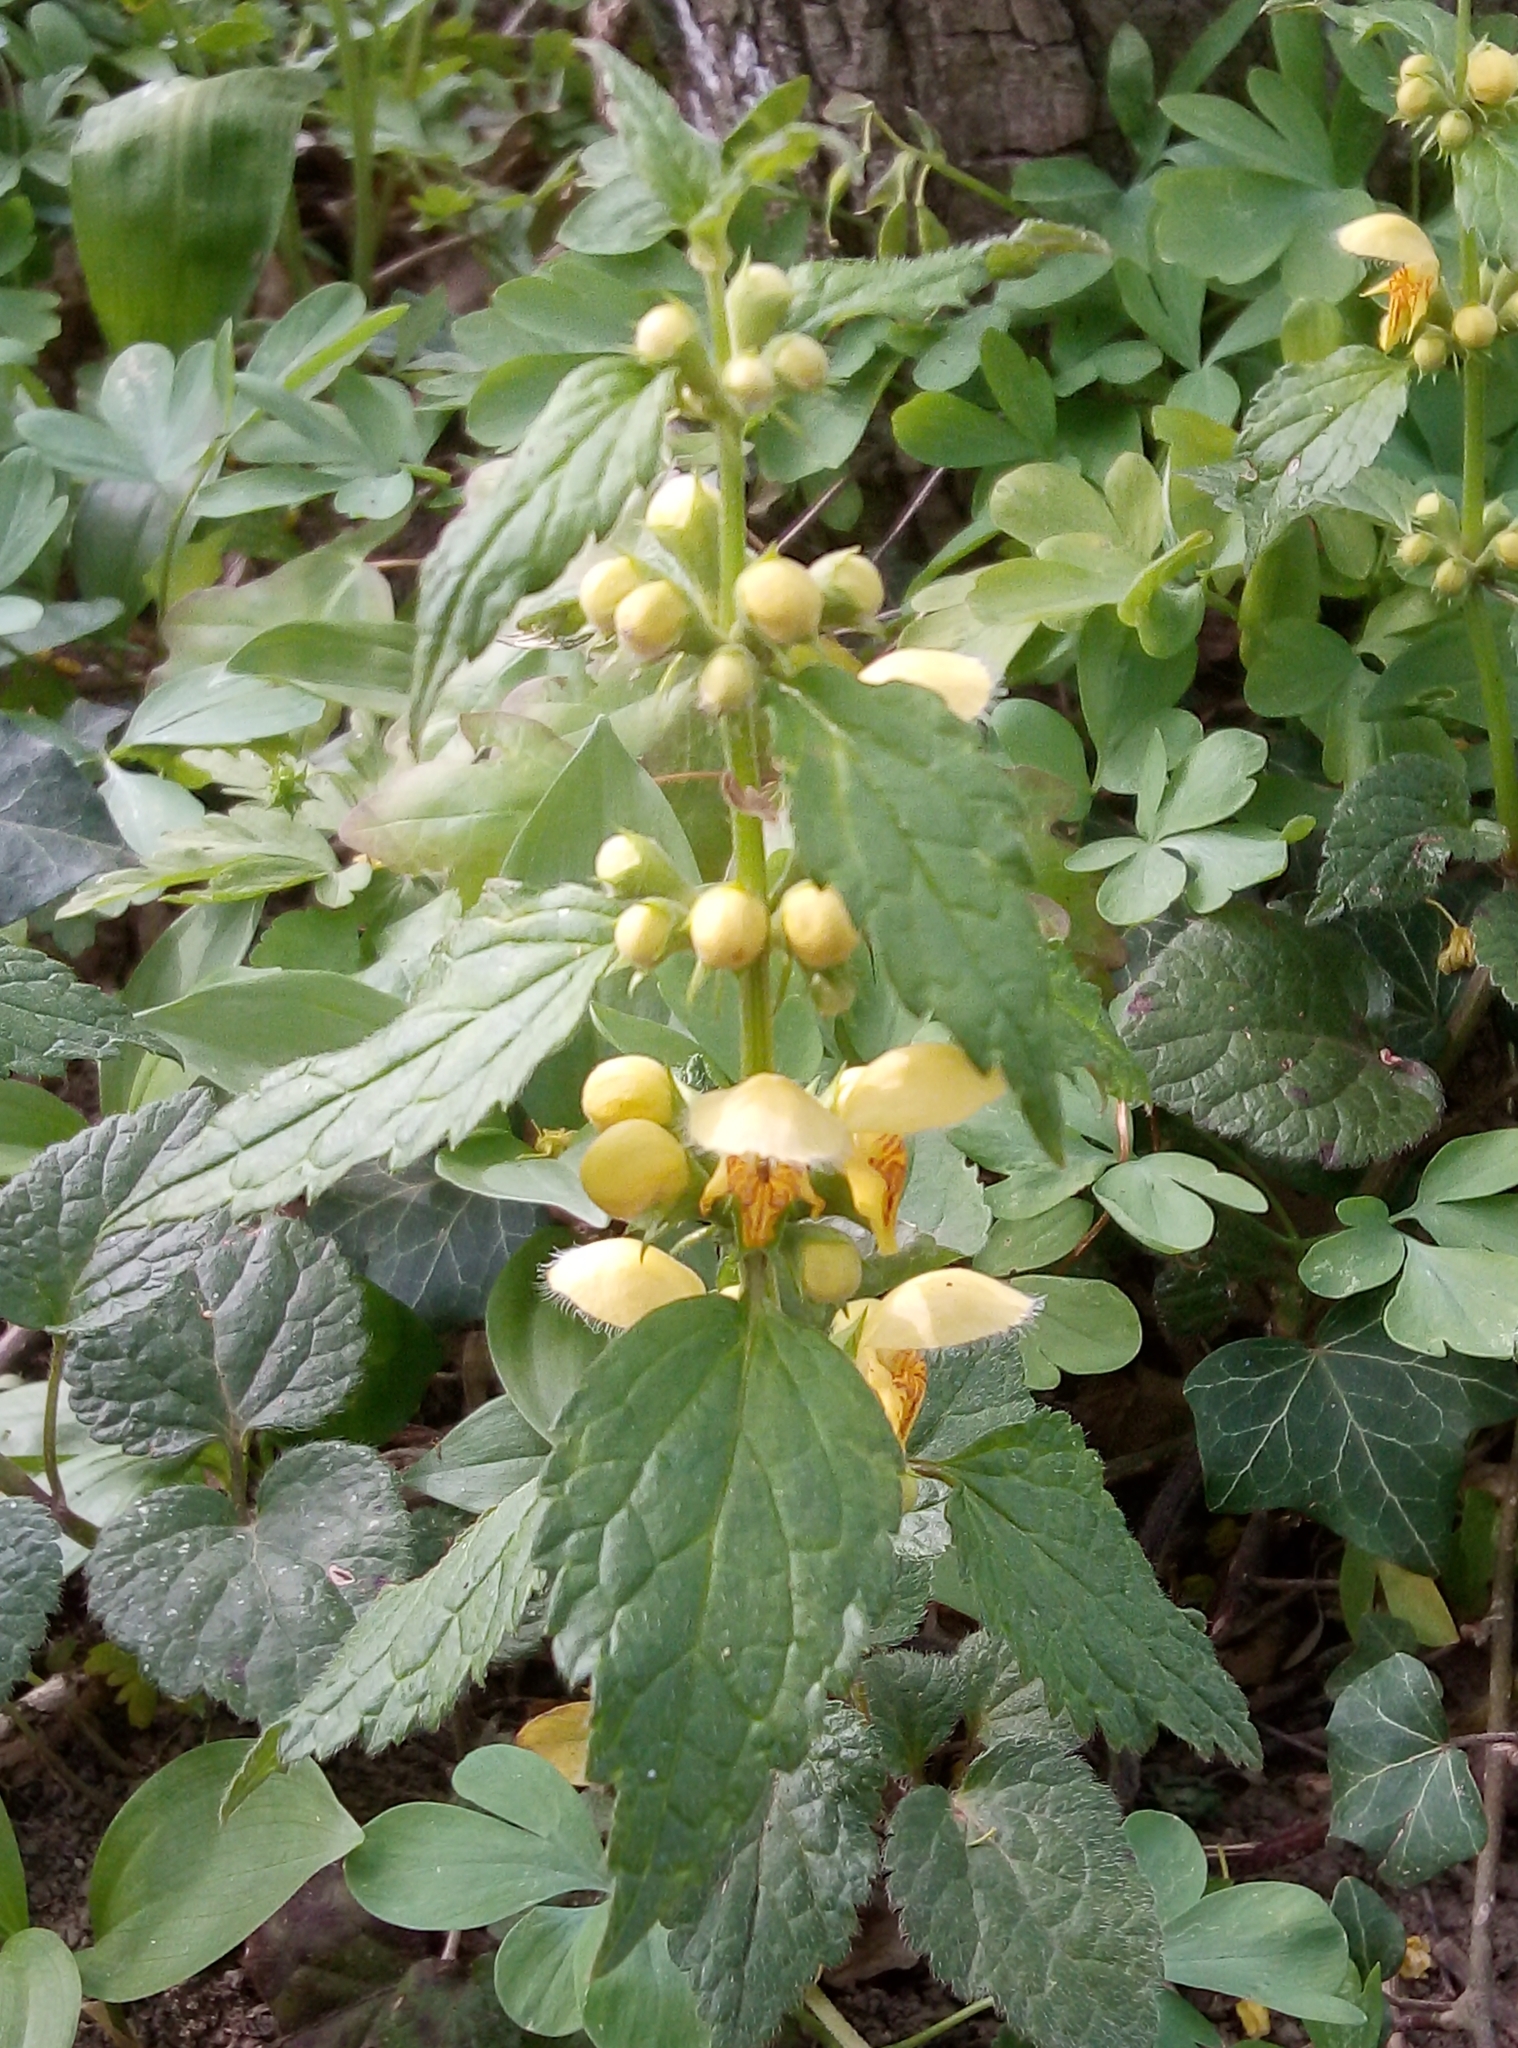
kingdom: Plantae
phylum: Tracheophyta
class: Magnoliopsida
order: Lamiales
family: Lamiaceae
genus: Lamium
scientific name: Lamium galeobdolon
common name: Yellow archangel
